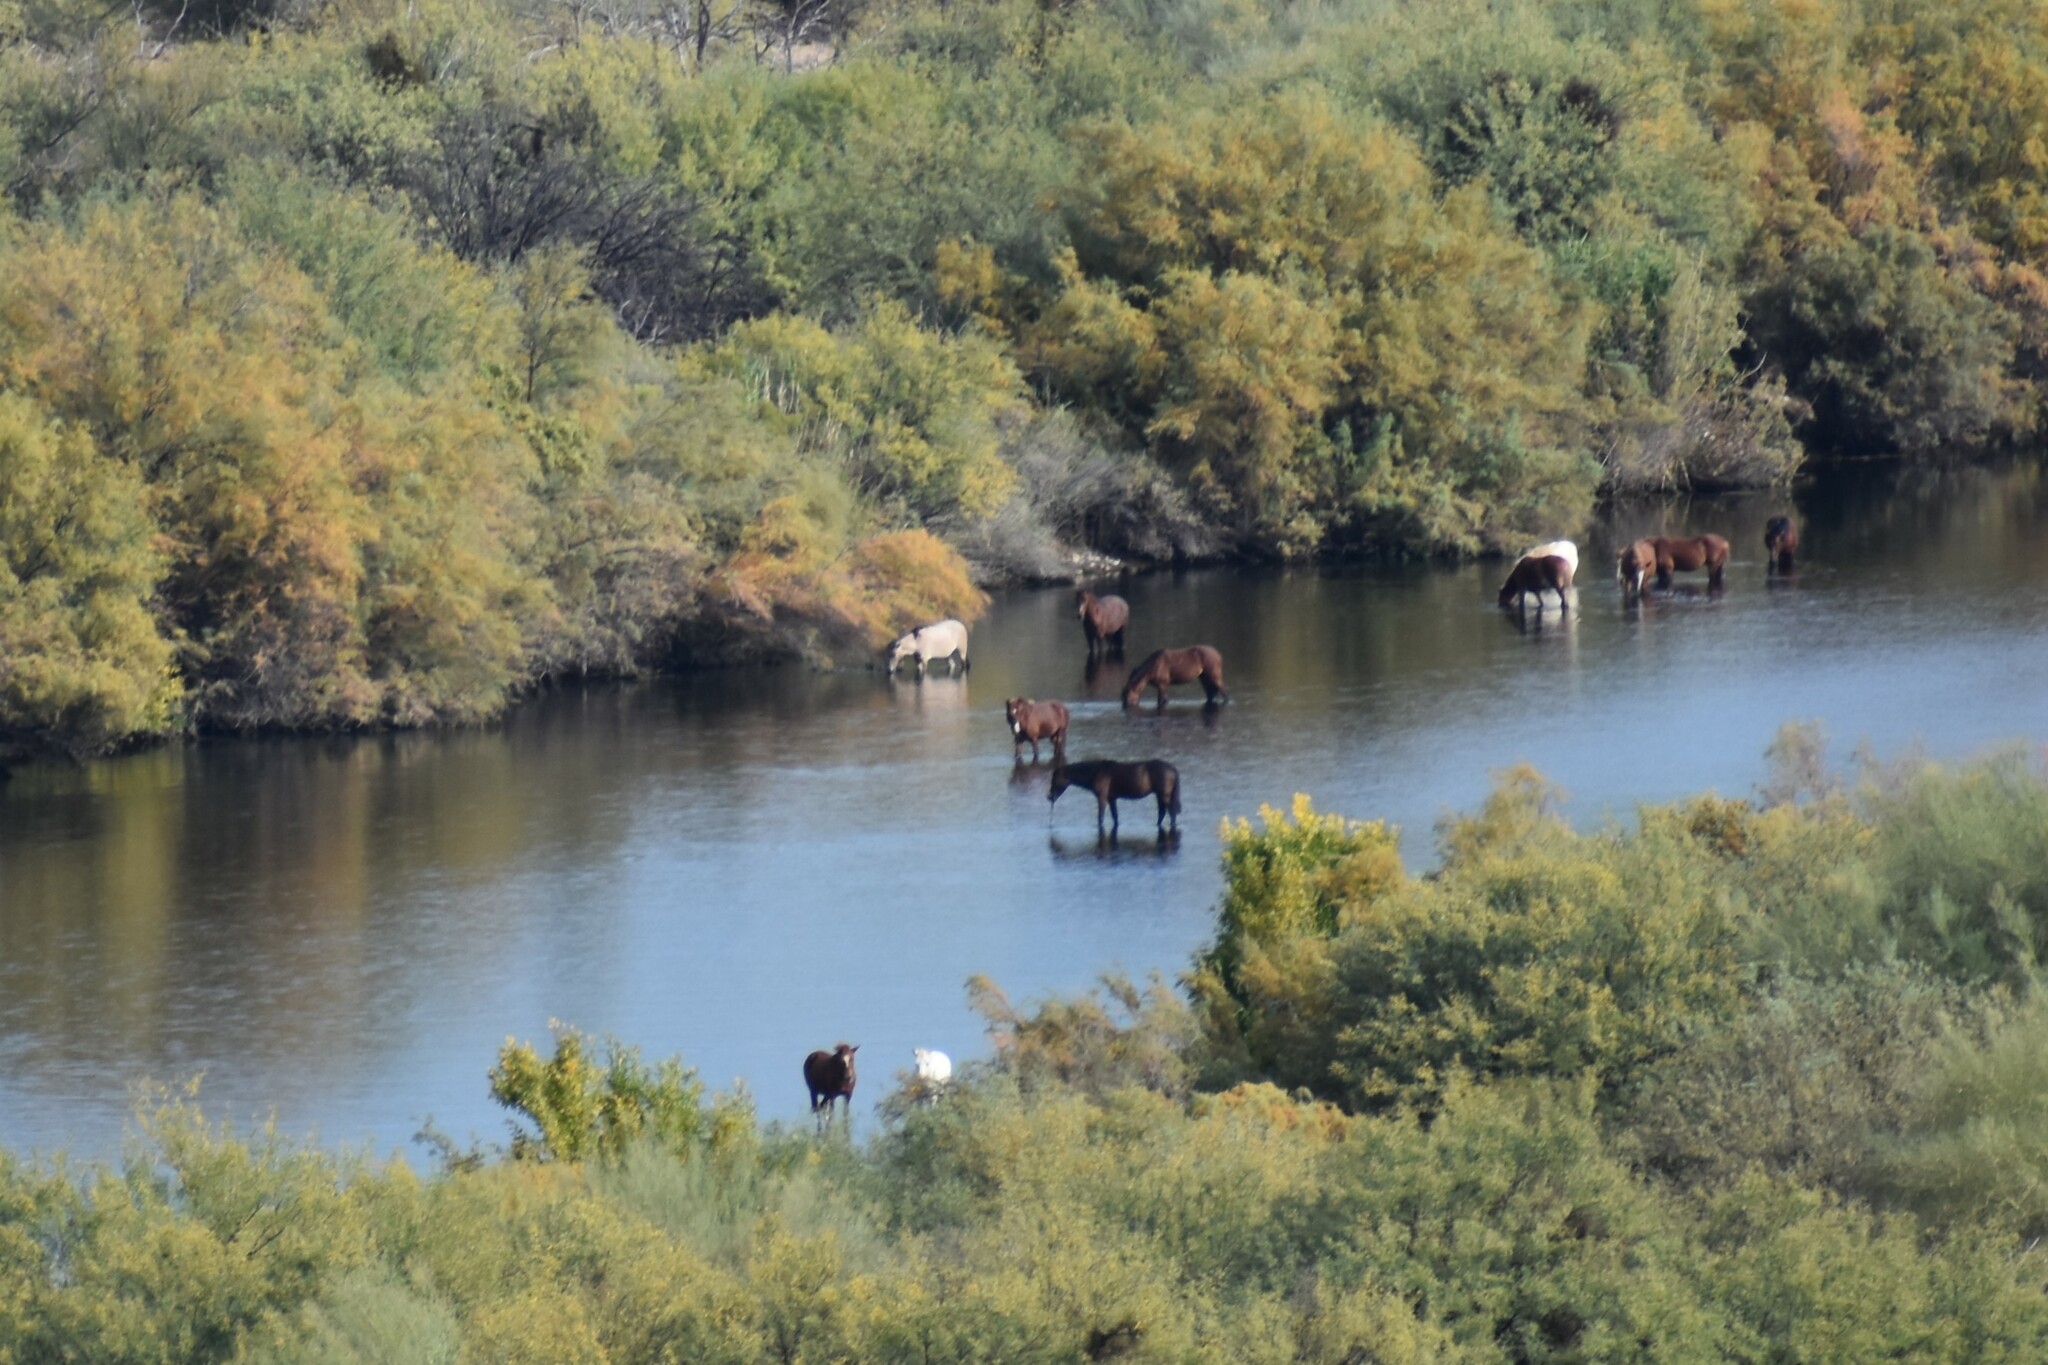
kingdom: Animalia
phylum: Chordata
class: Mammalia
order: Perissodactyla
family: Equidae
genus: Equus
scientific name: Equus caballus
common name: Horse
